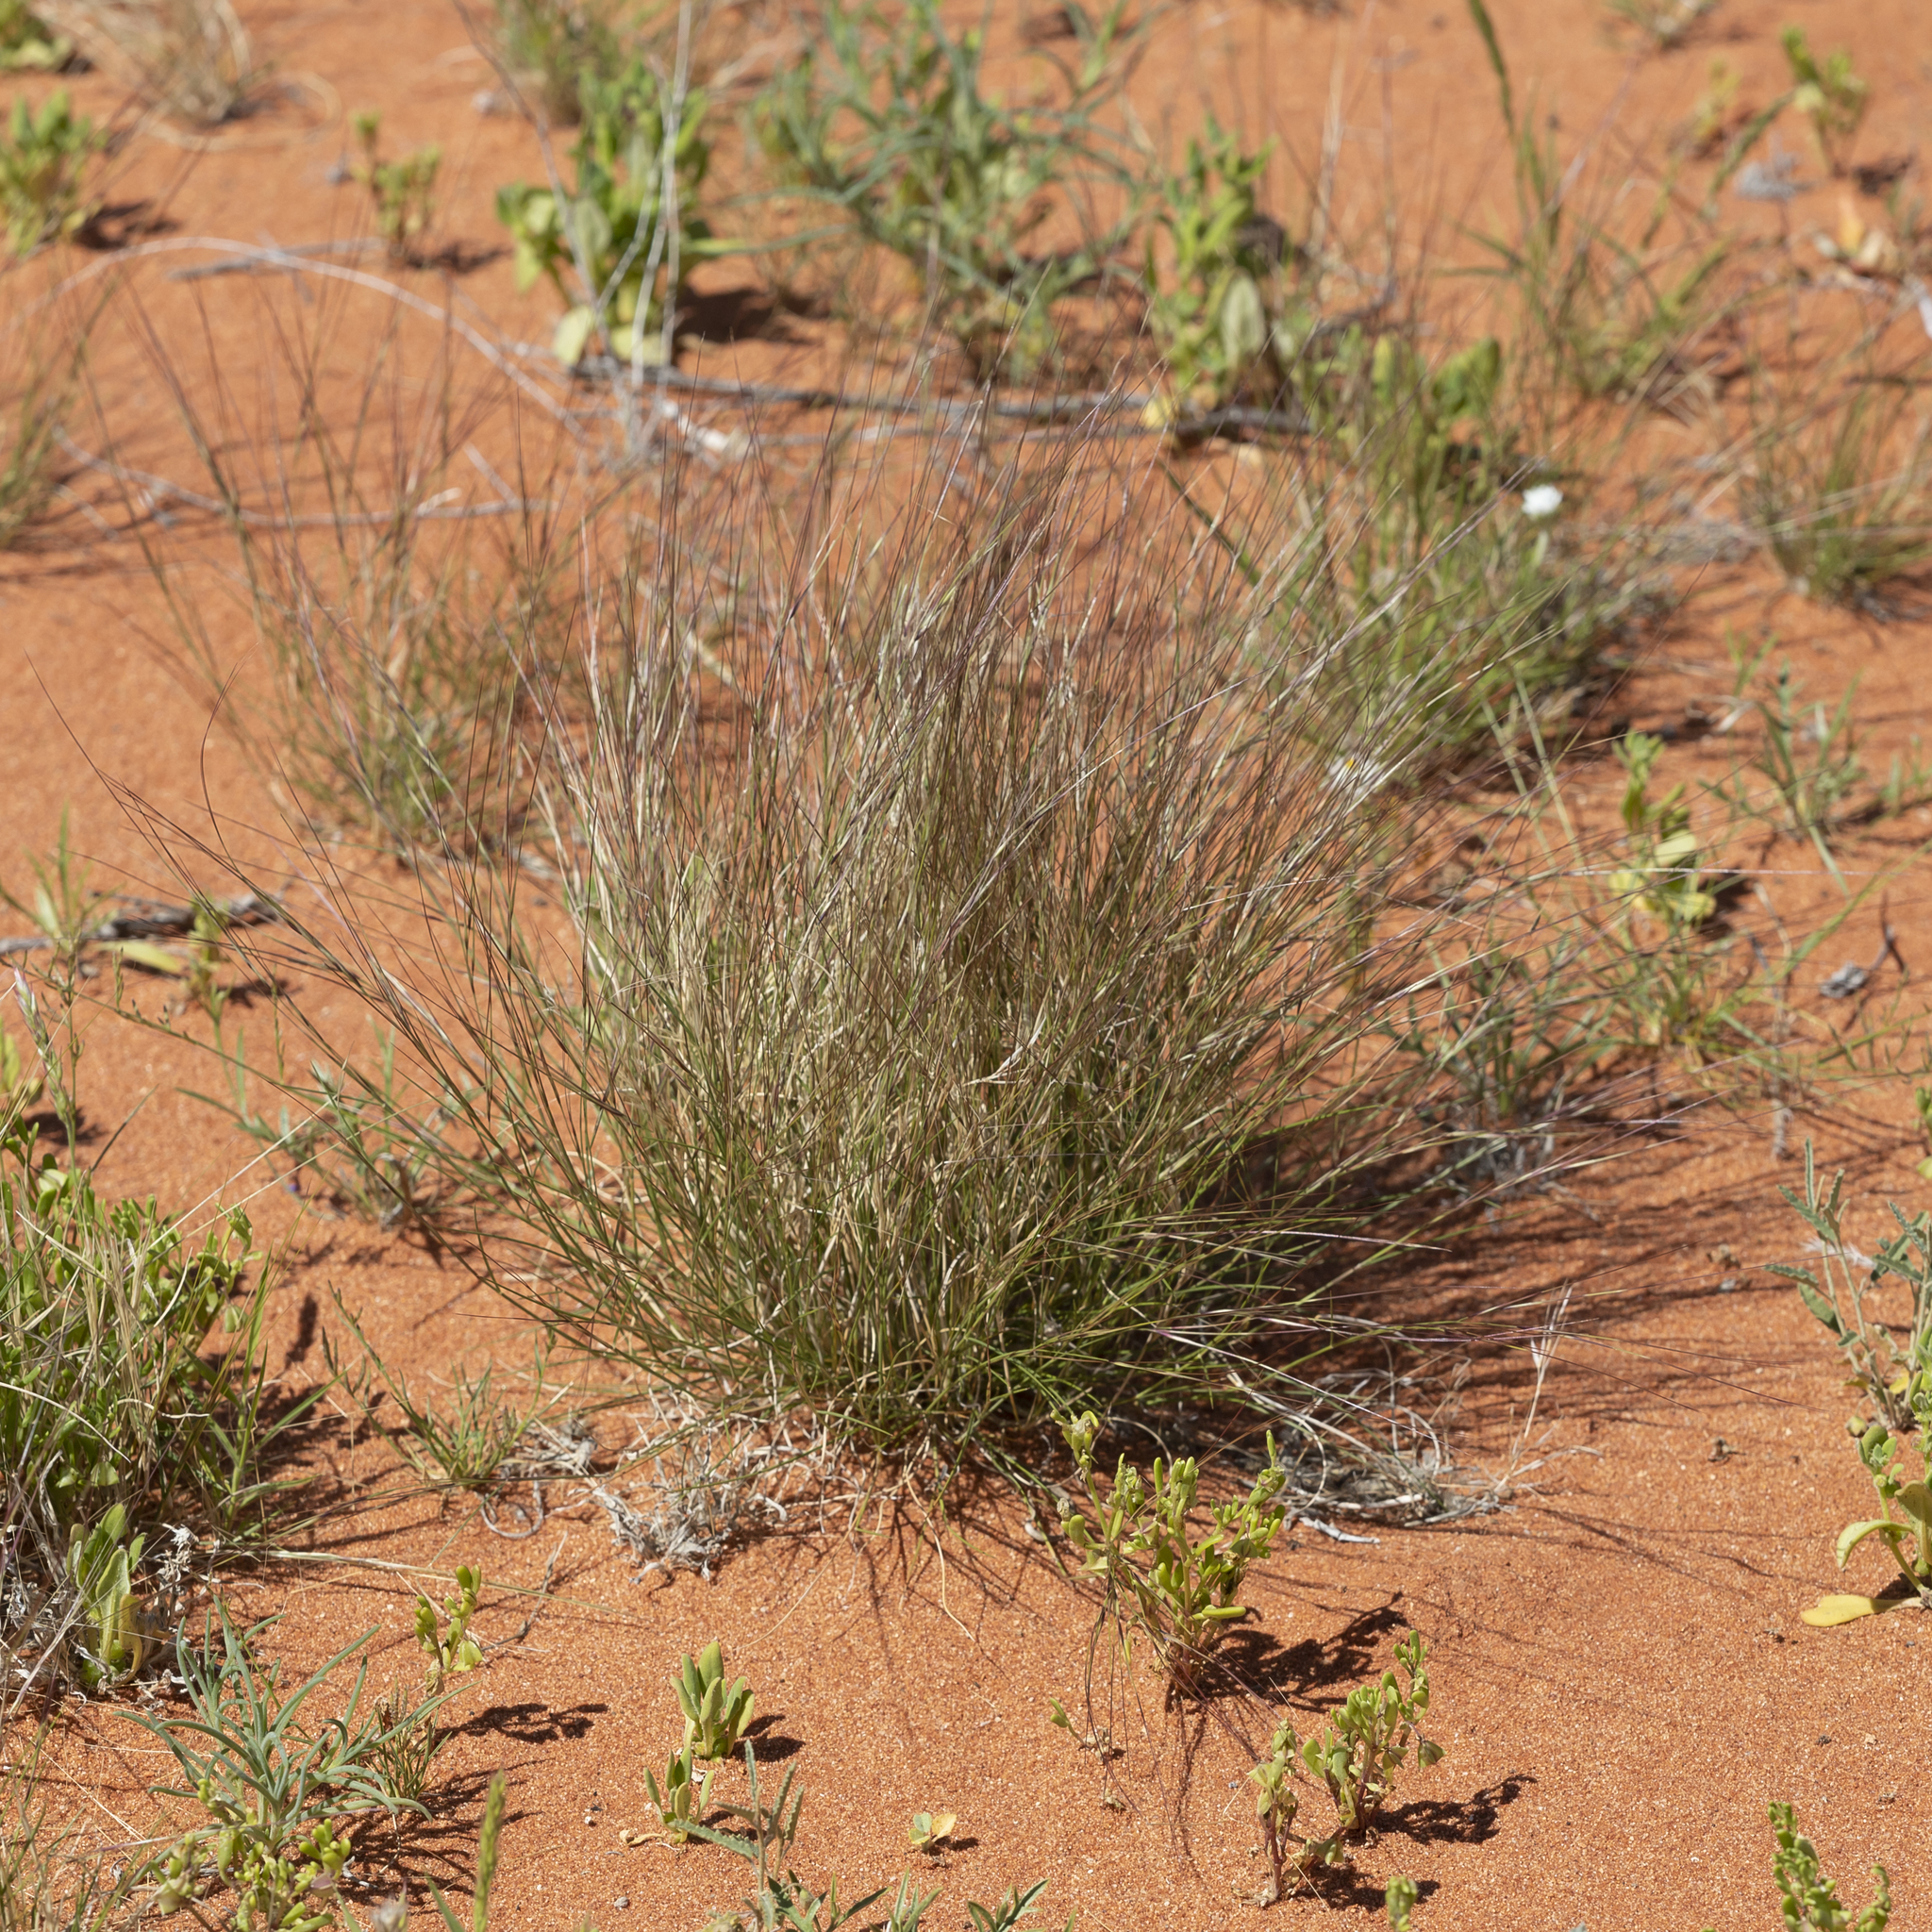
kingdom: Plantae
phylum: Tracheophyta
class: Liliopsida
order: Poales
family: Poaceae
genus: Aristida
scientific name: Aristida contorta
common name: Bunch kerosene grass
